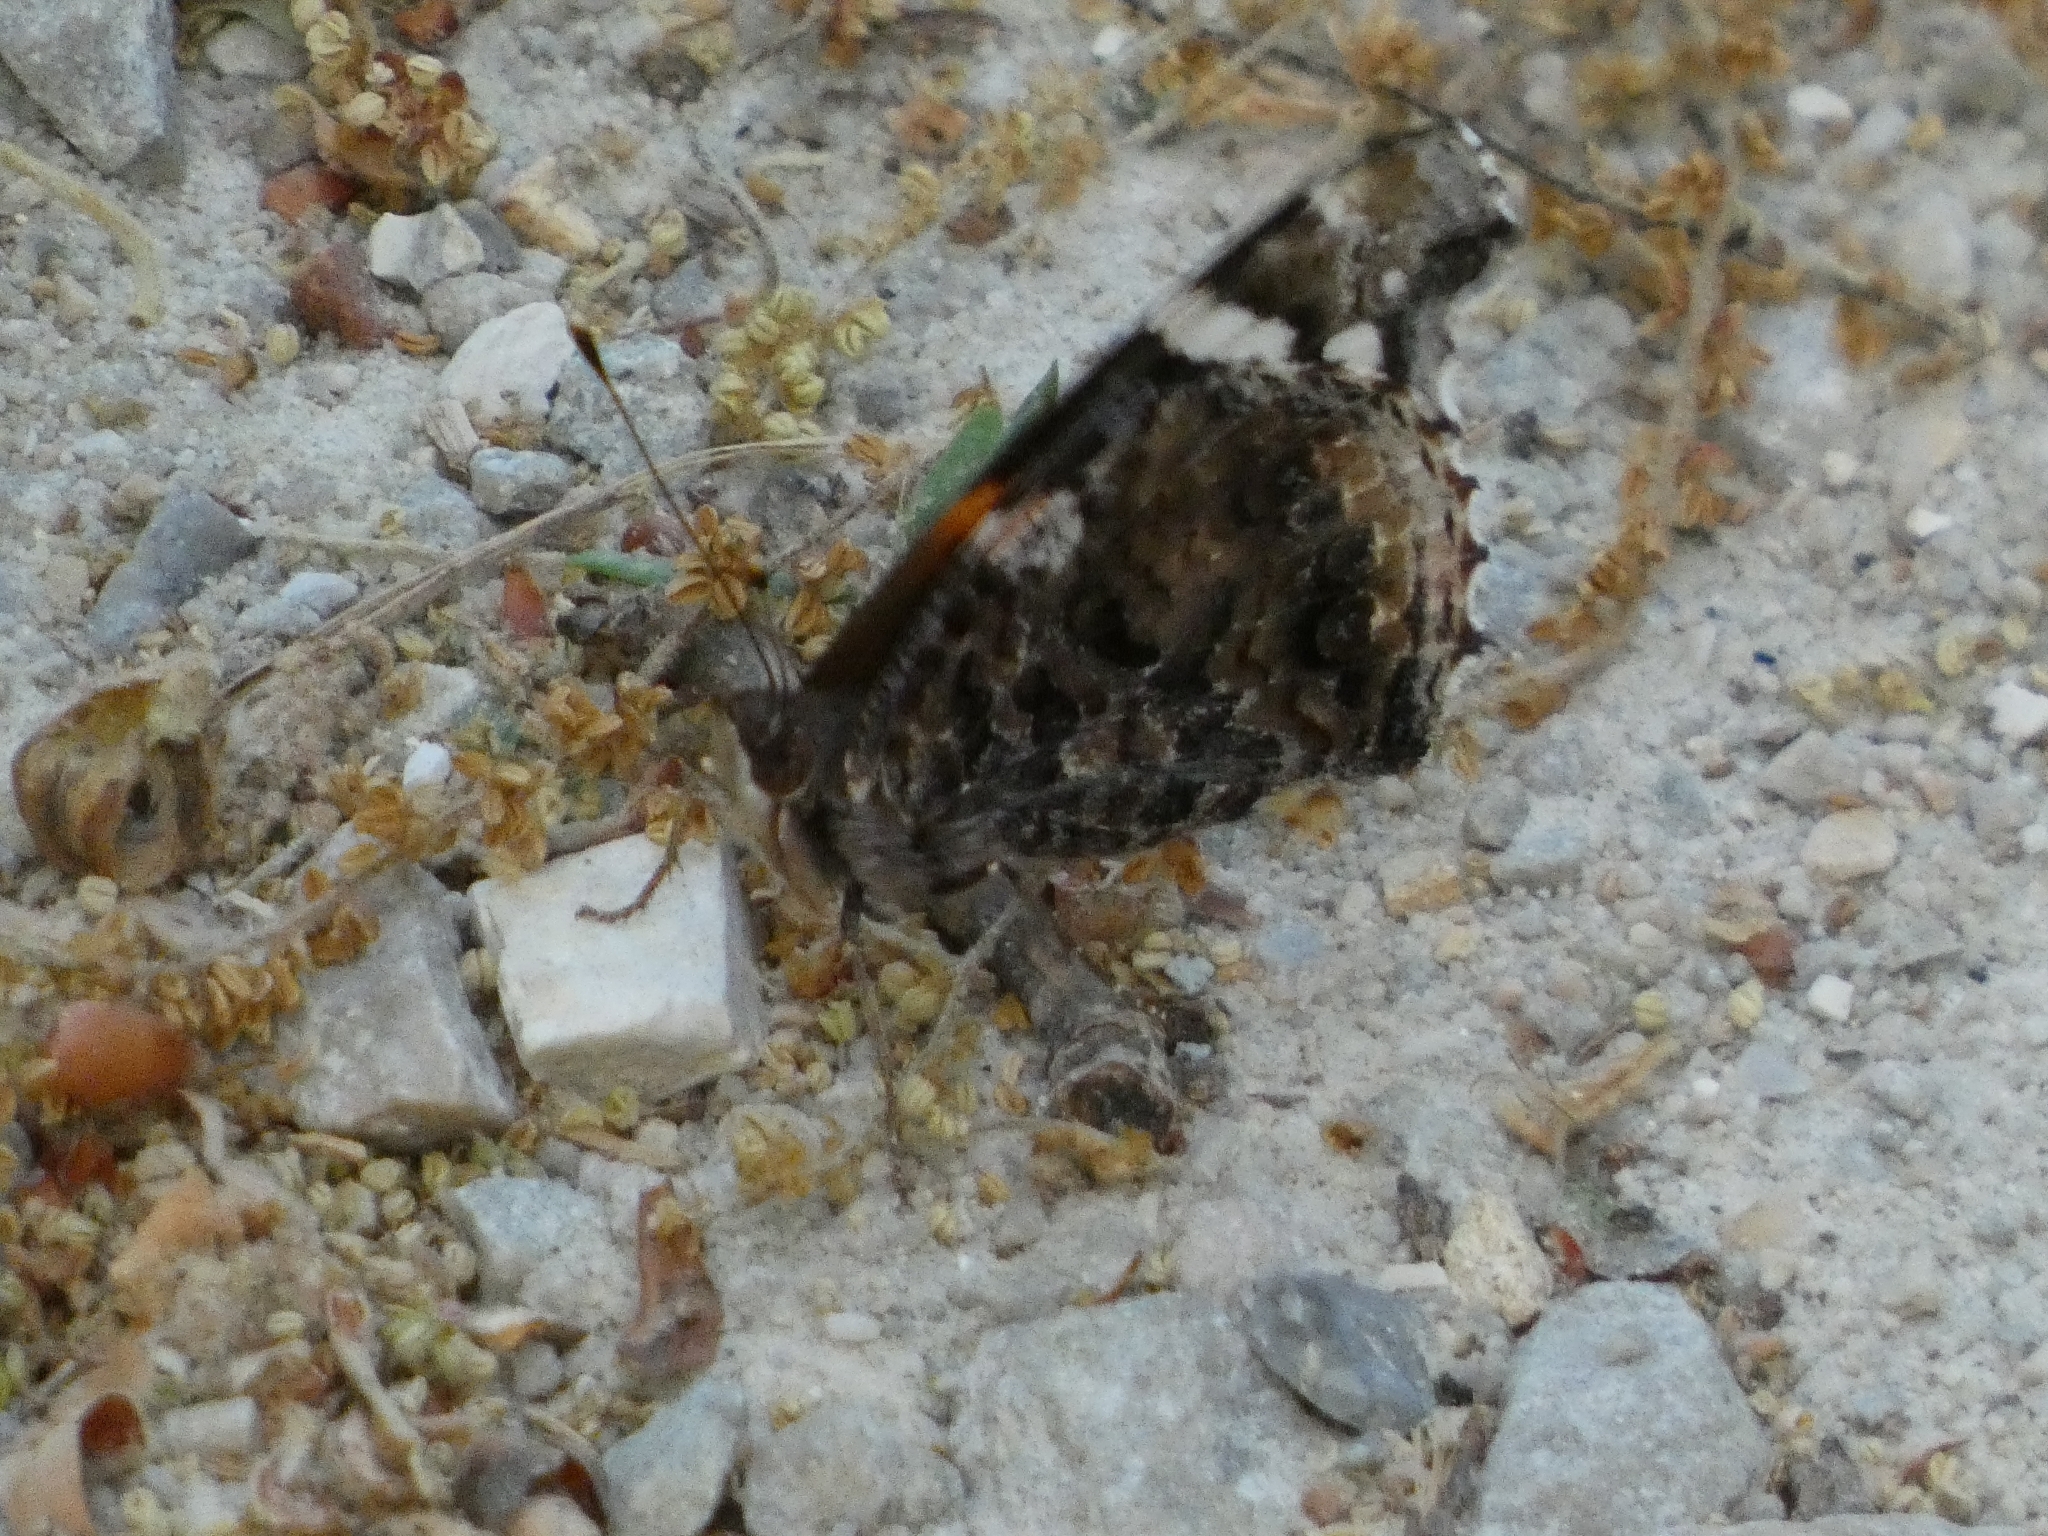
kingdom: Animalia
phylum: Arthropoda
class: Insecta
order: Lepidoptera
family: Nymphalidae
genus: Vanessa
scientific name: Vanessa atalanta
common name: Red admiral
